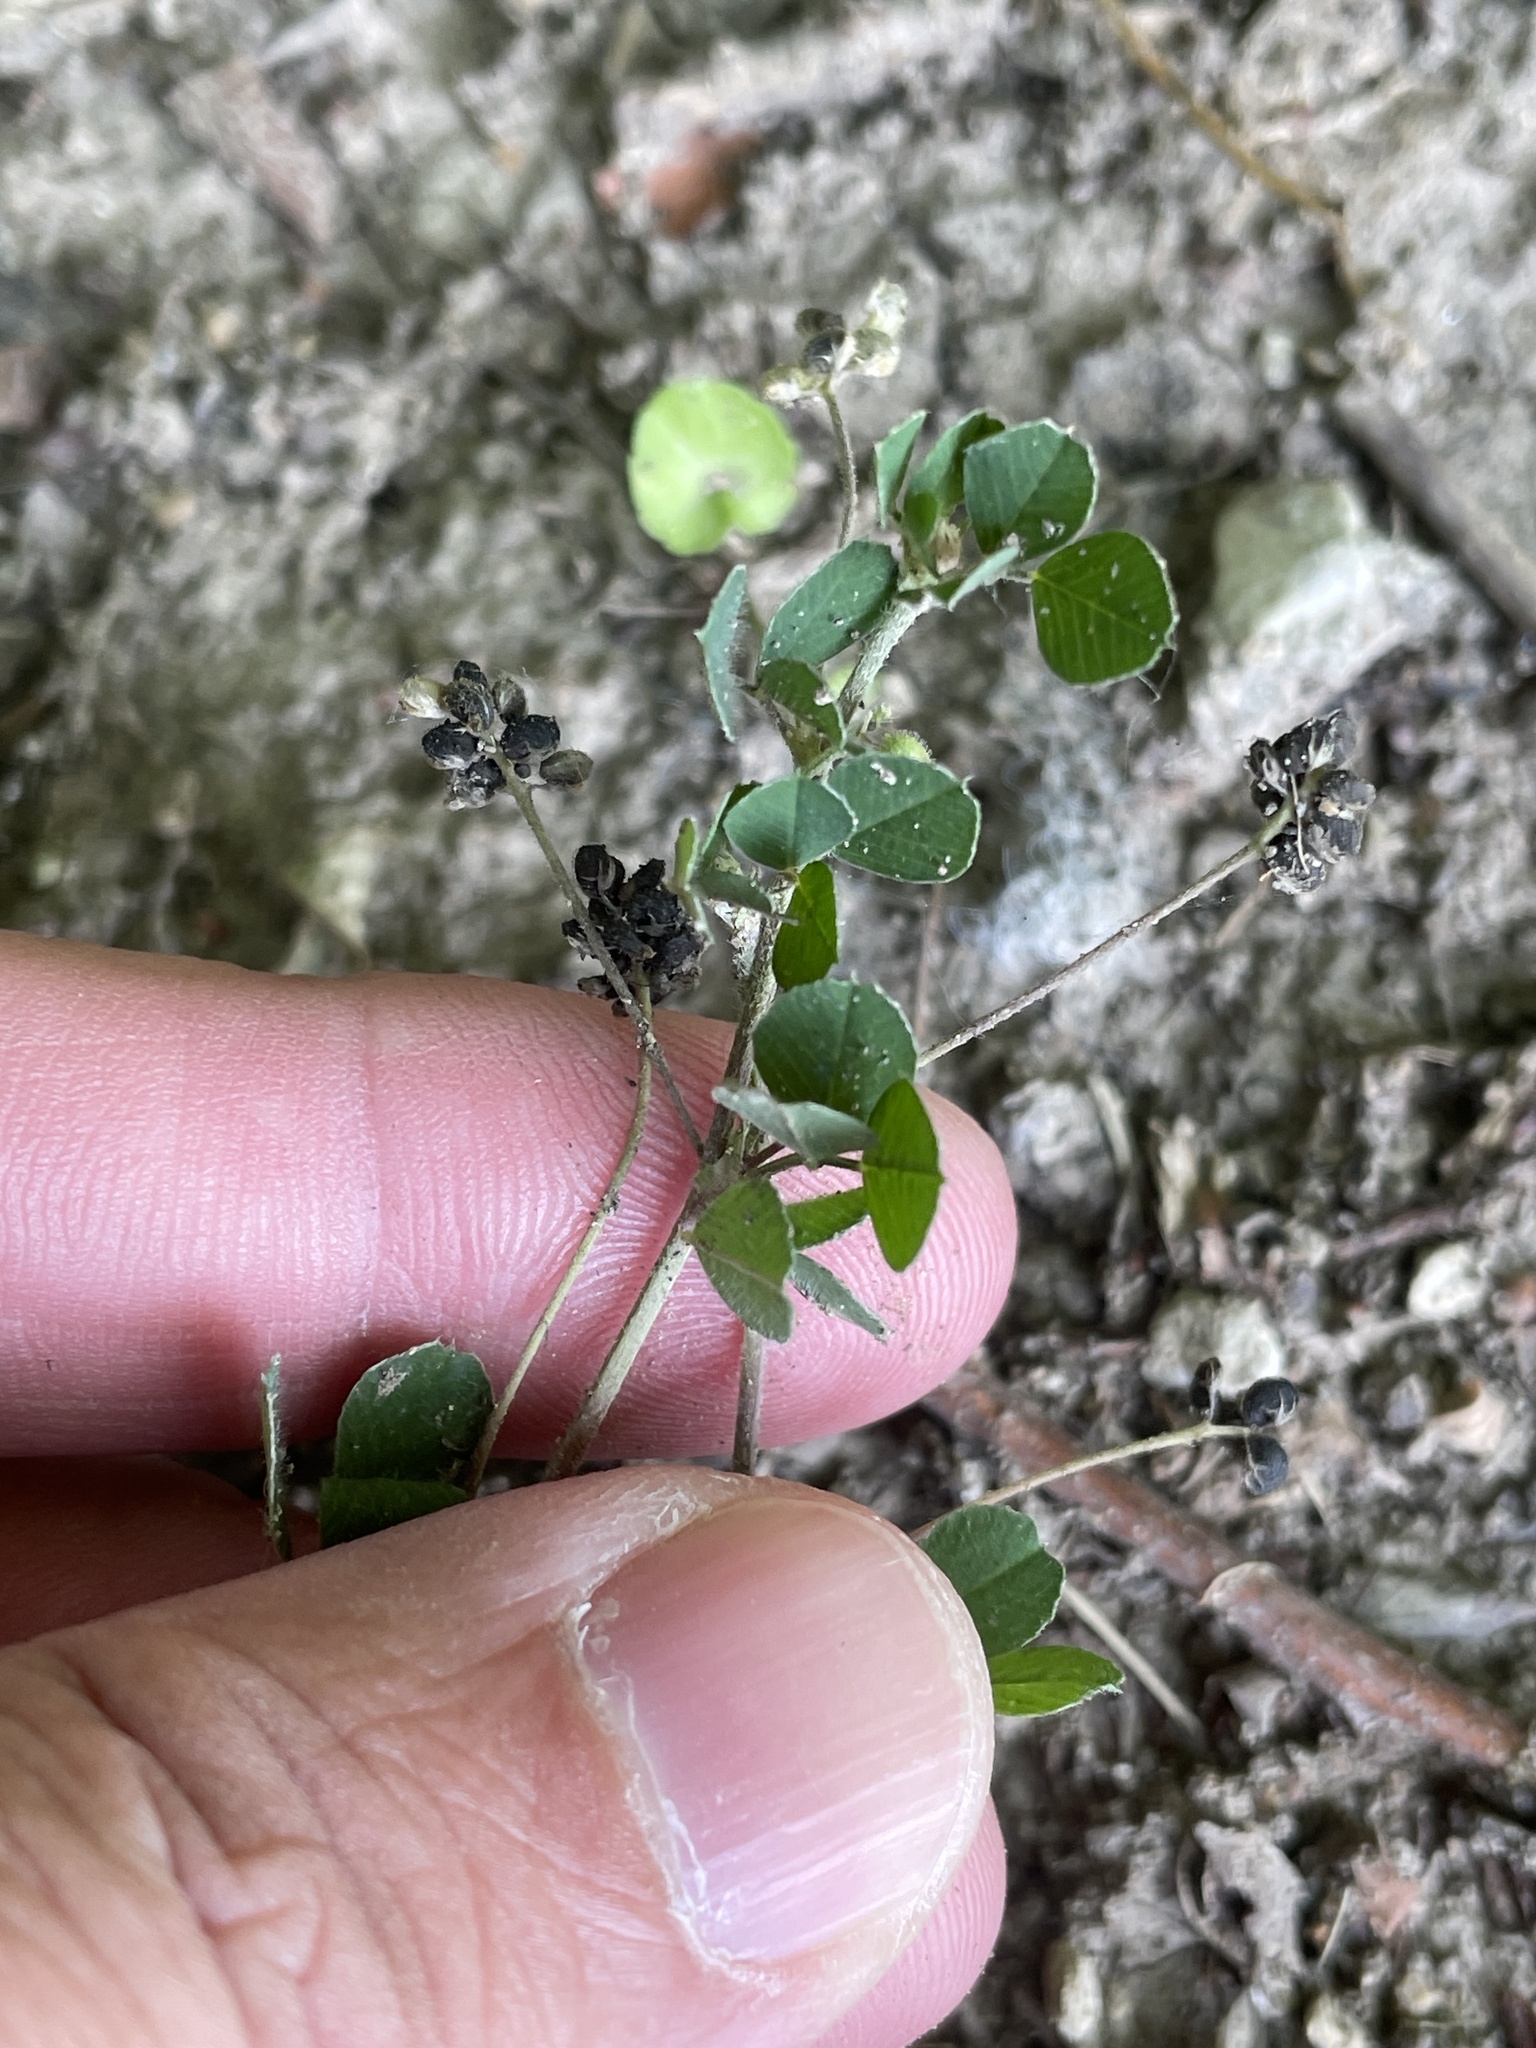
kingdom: Plantae
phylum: Tracheophyta
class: Magnoliopsida
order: Fabales
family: Fabaceae
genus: Medicago
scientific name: Medicago lupulina
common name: Black medick
